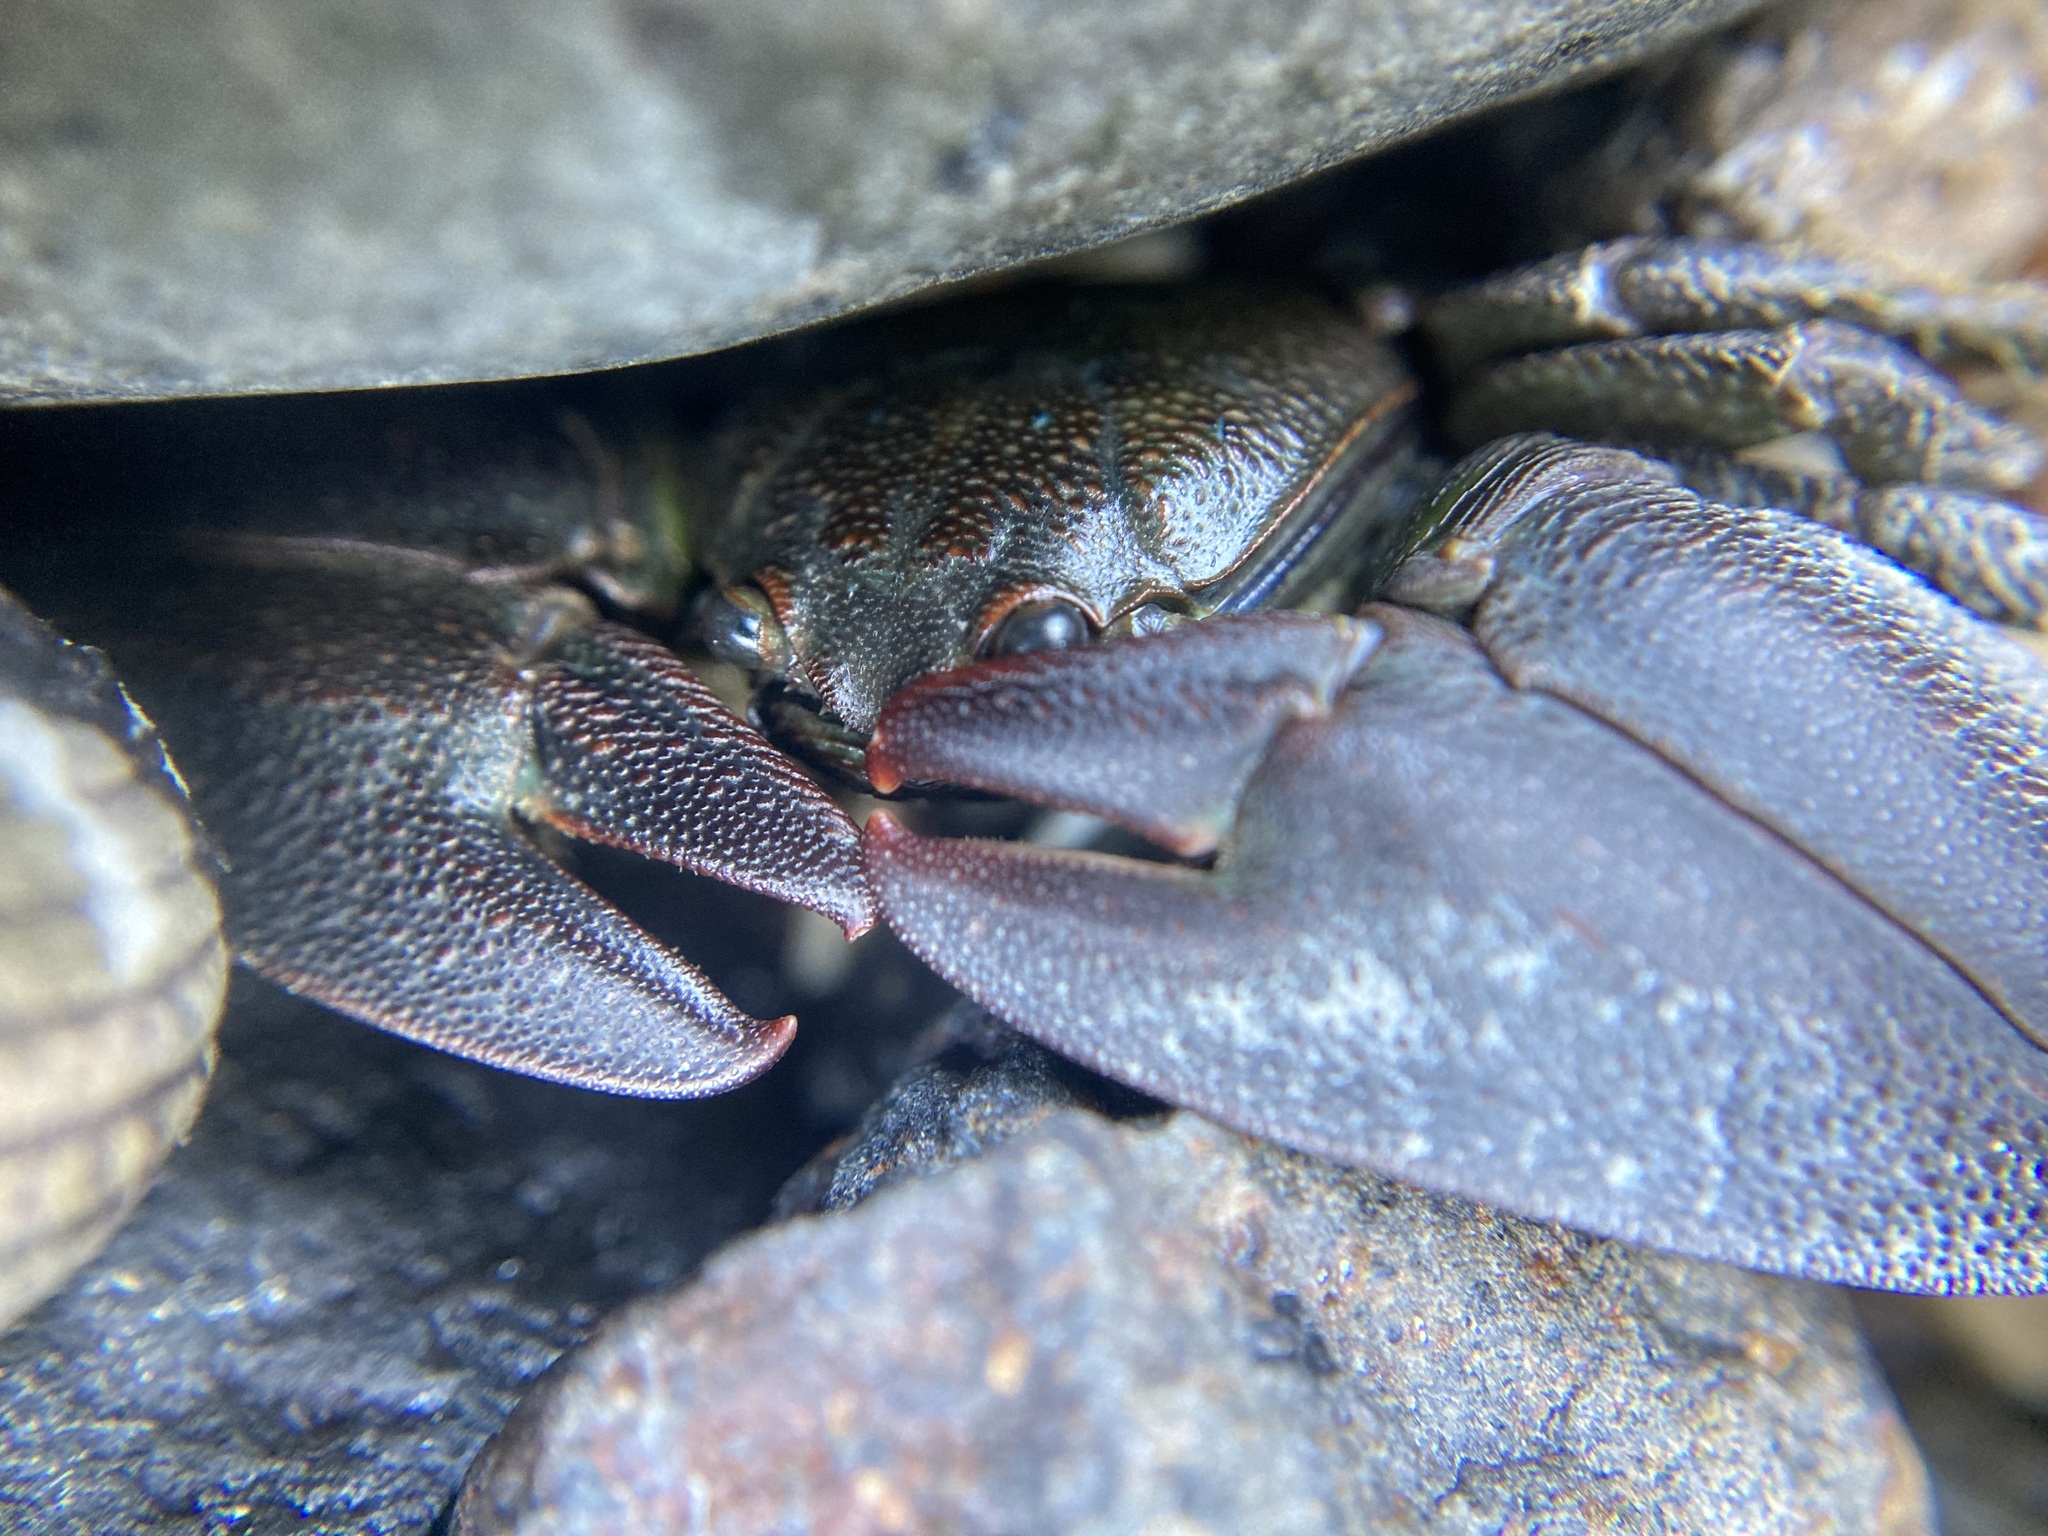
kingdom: Animalia
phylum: Arthropoda
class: Malacostraca
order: Decapoda
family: Porcellanidae
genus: Petrolisthes
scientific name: Petrolisthes elongatus
